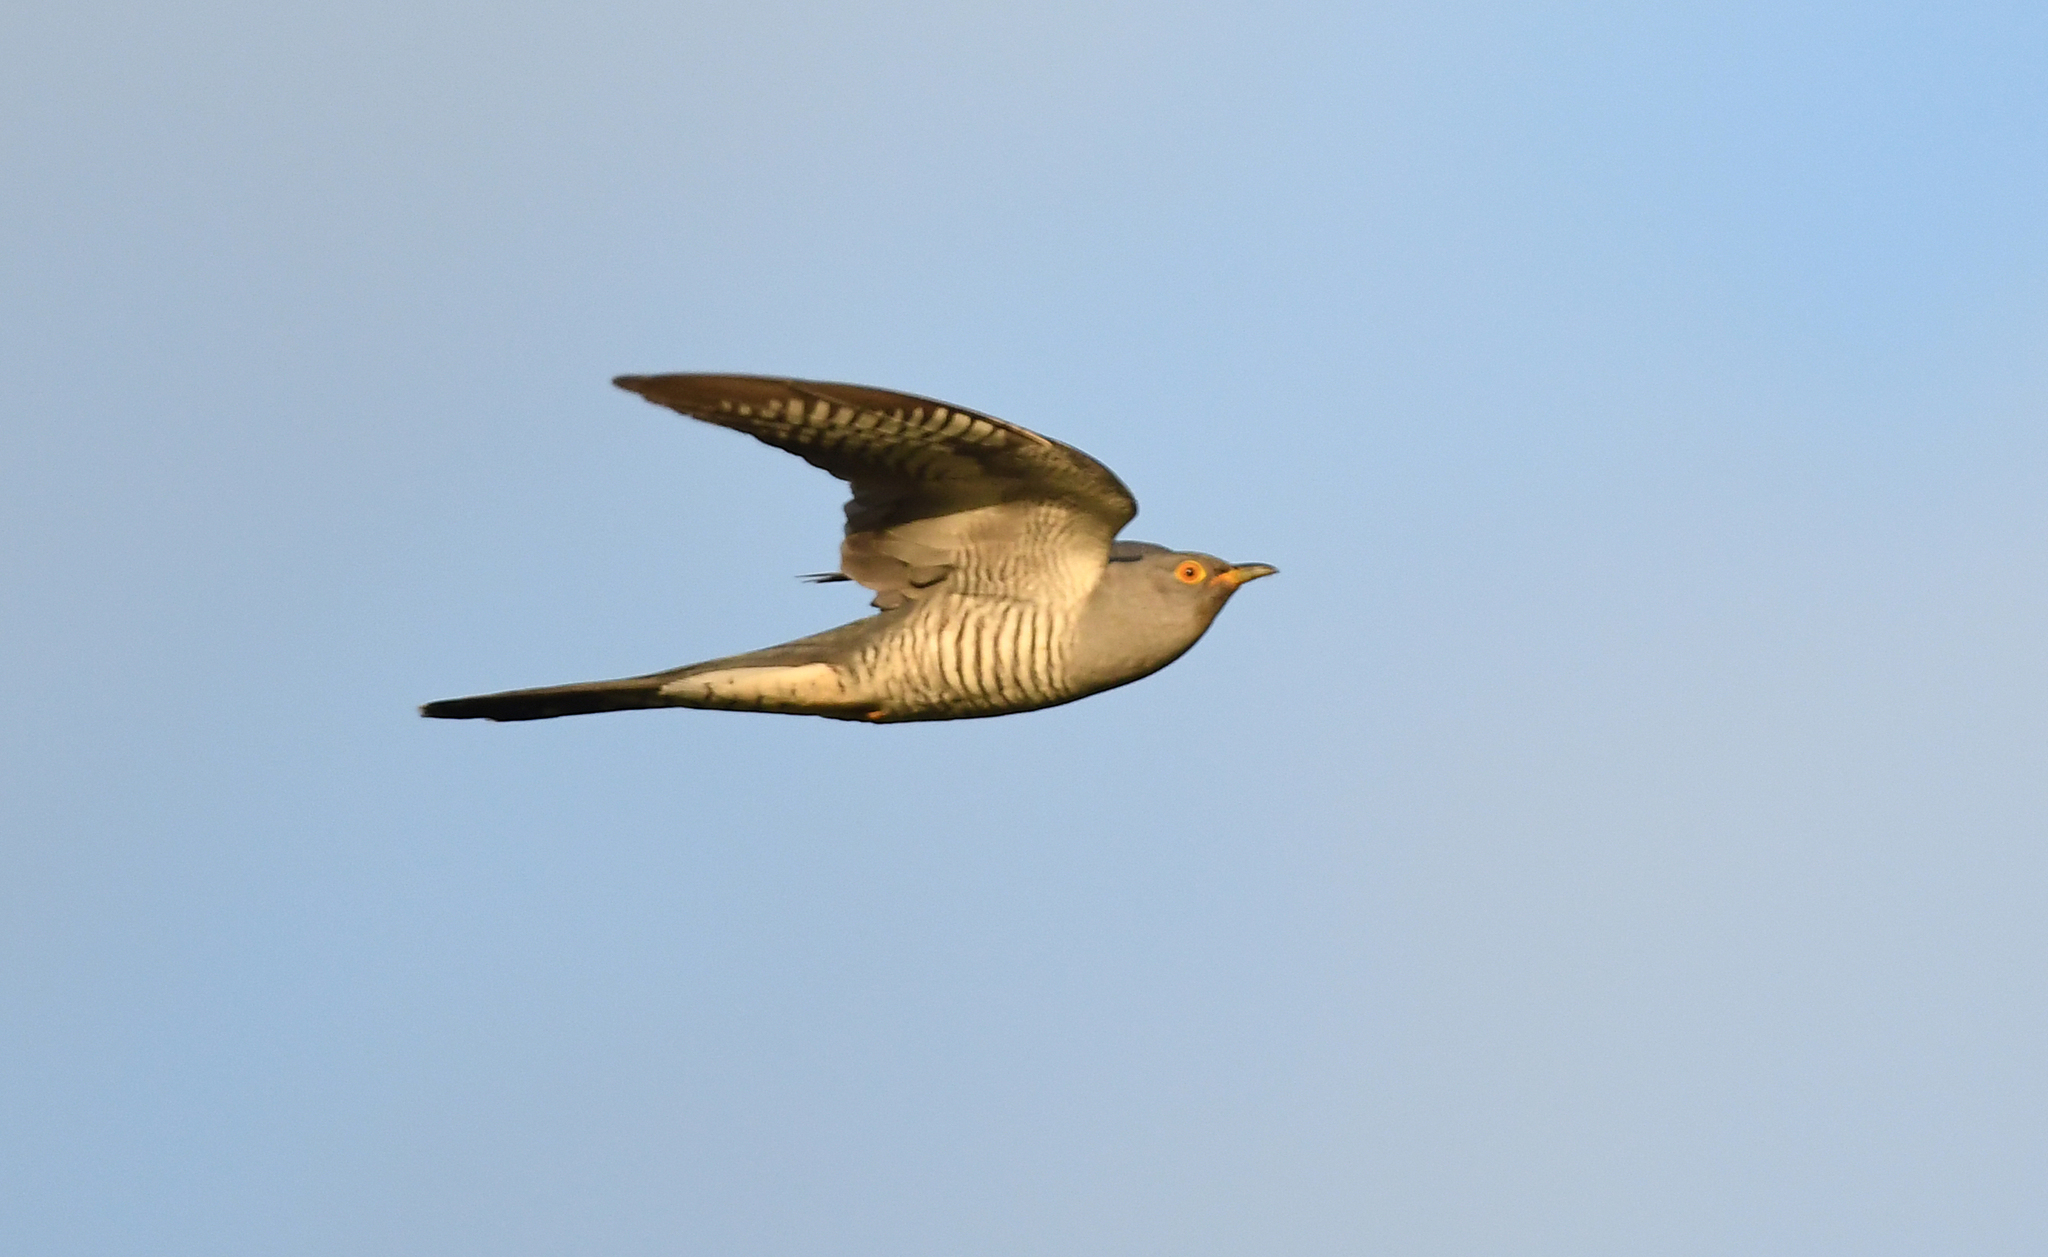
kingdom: Animalia
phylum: Chordata
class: Aves
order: Cuculiformes
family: Cuculidae
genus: Cuculus
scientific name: Cuculus canorus
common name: Common cuckoo
